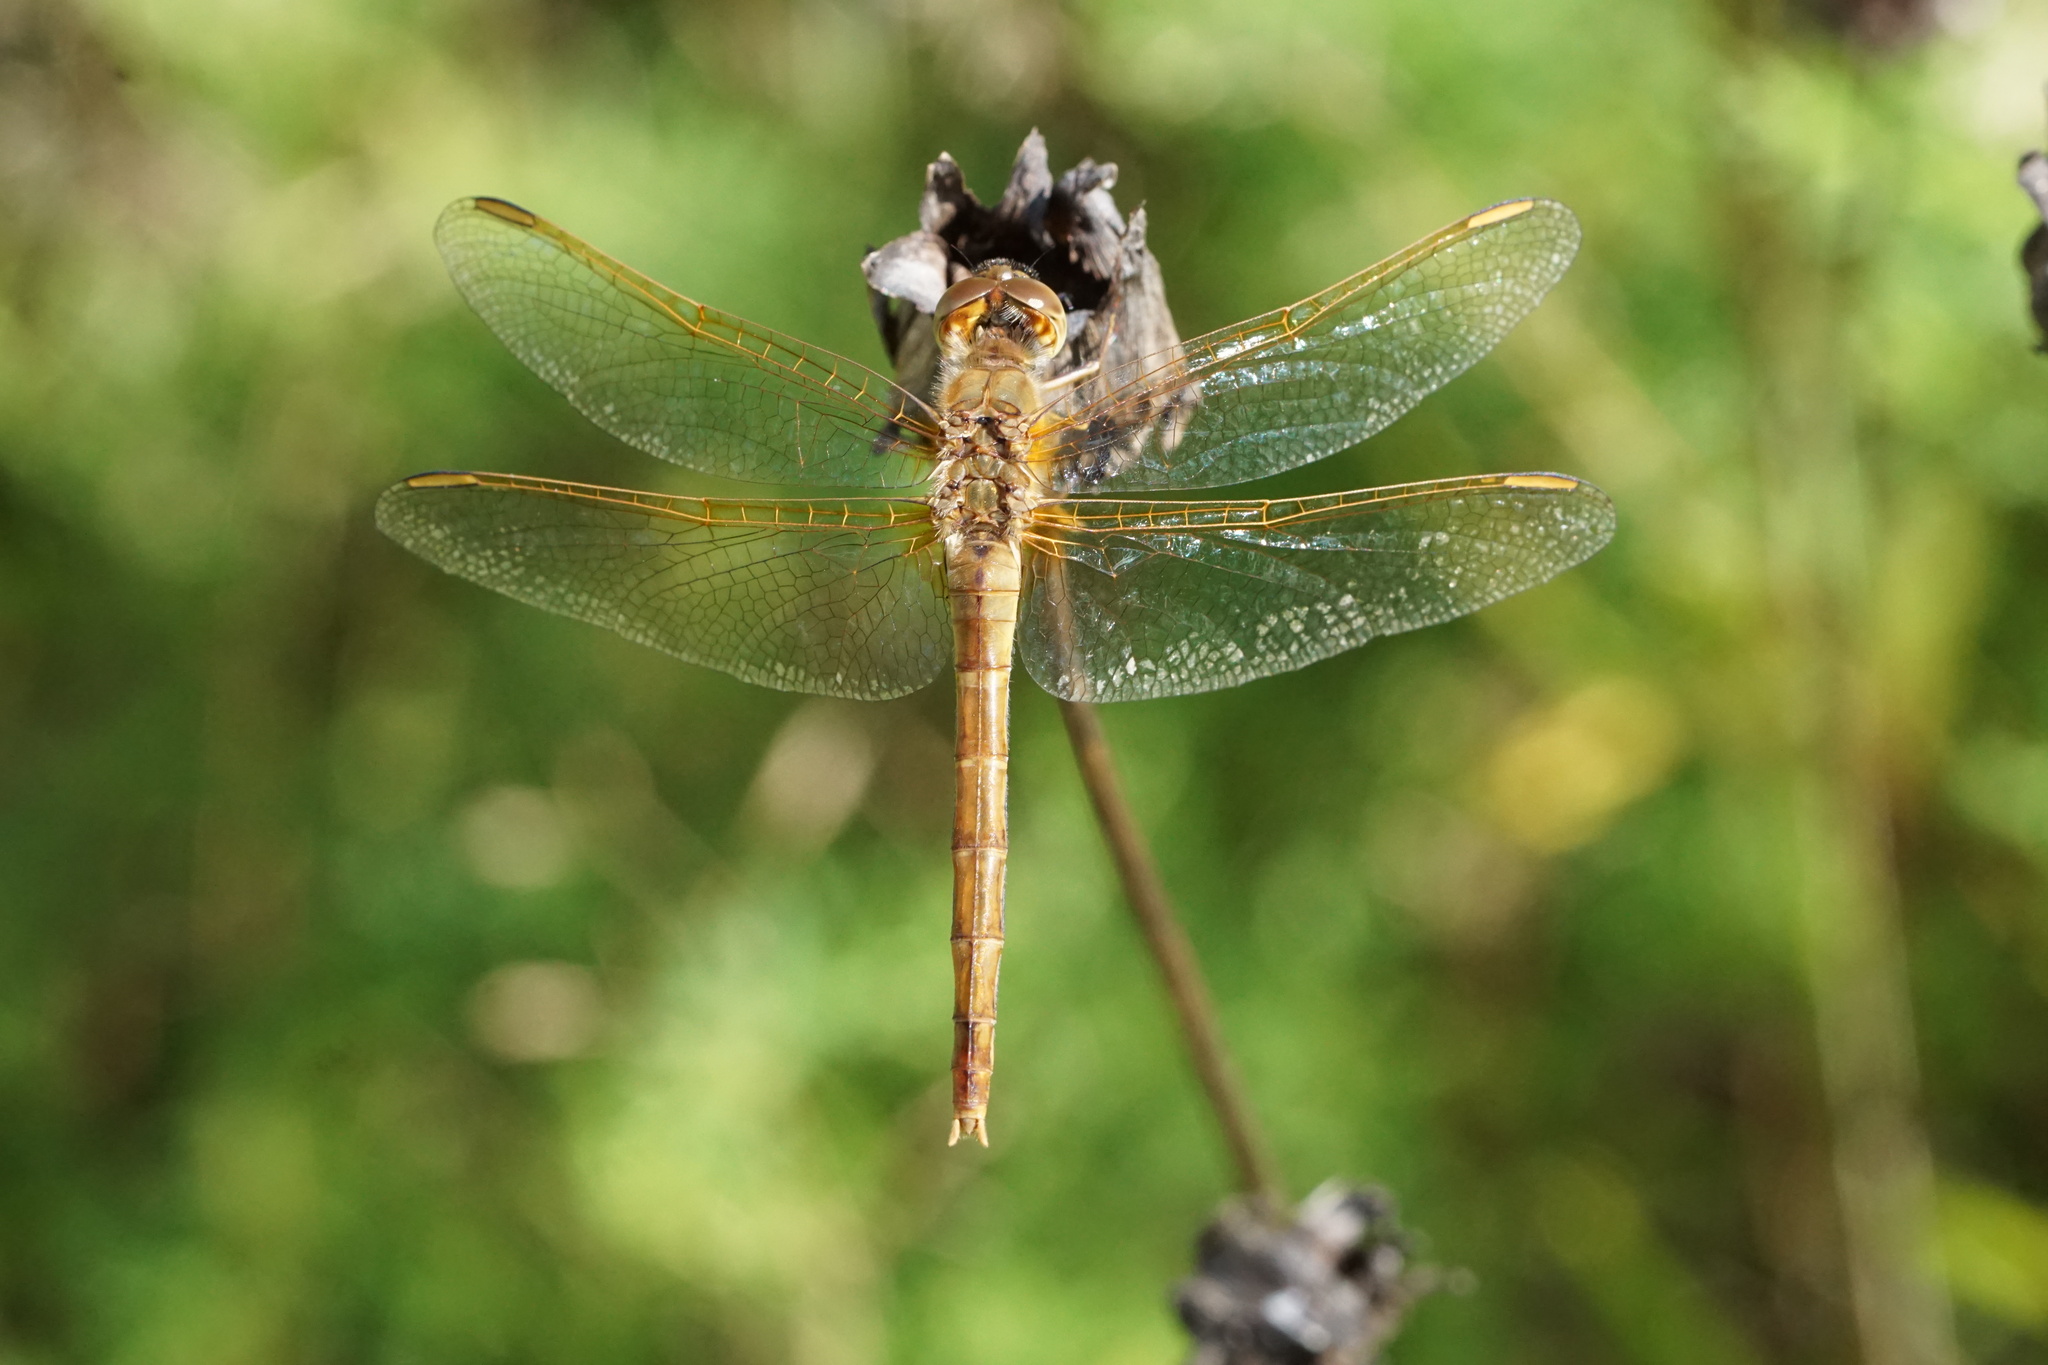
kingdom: Animalia
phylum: Arthropoda
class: Insecta
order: Odonata
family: Libellulidae
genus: Sympetrum
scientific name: Sympetrum costiferum
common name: Saffron-winged meadowhawk
